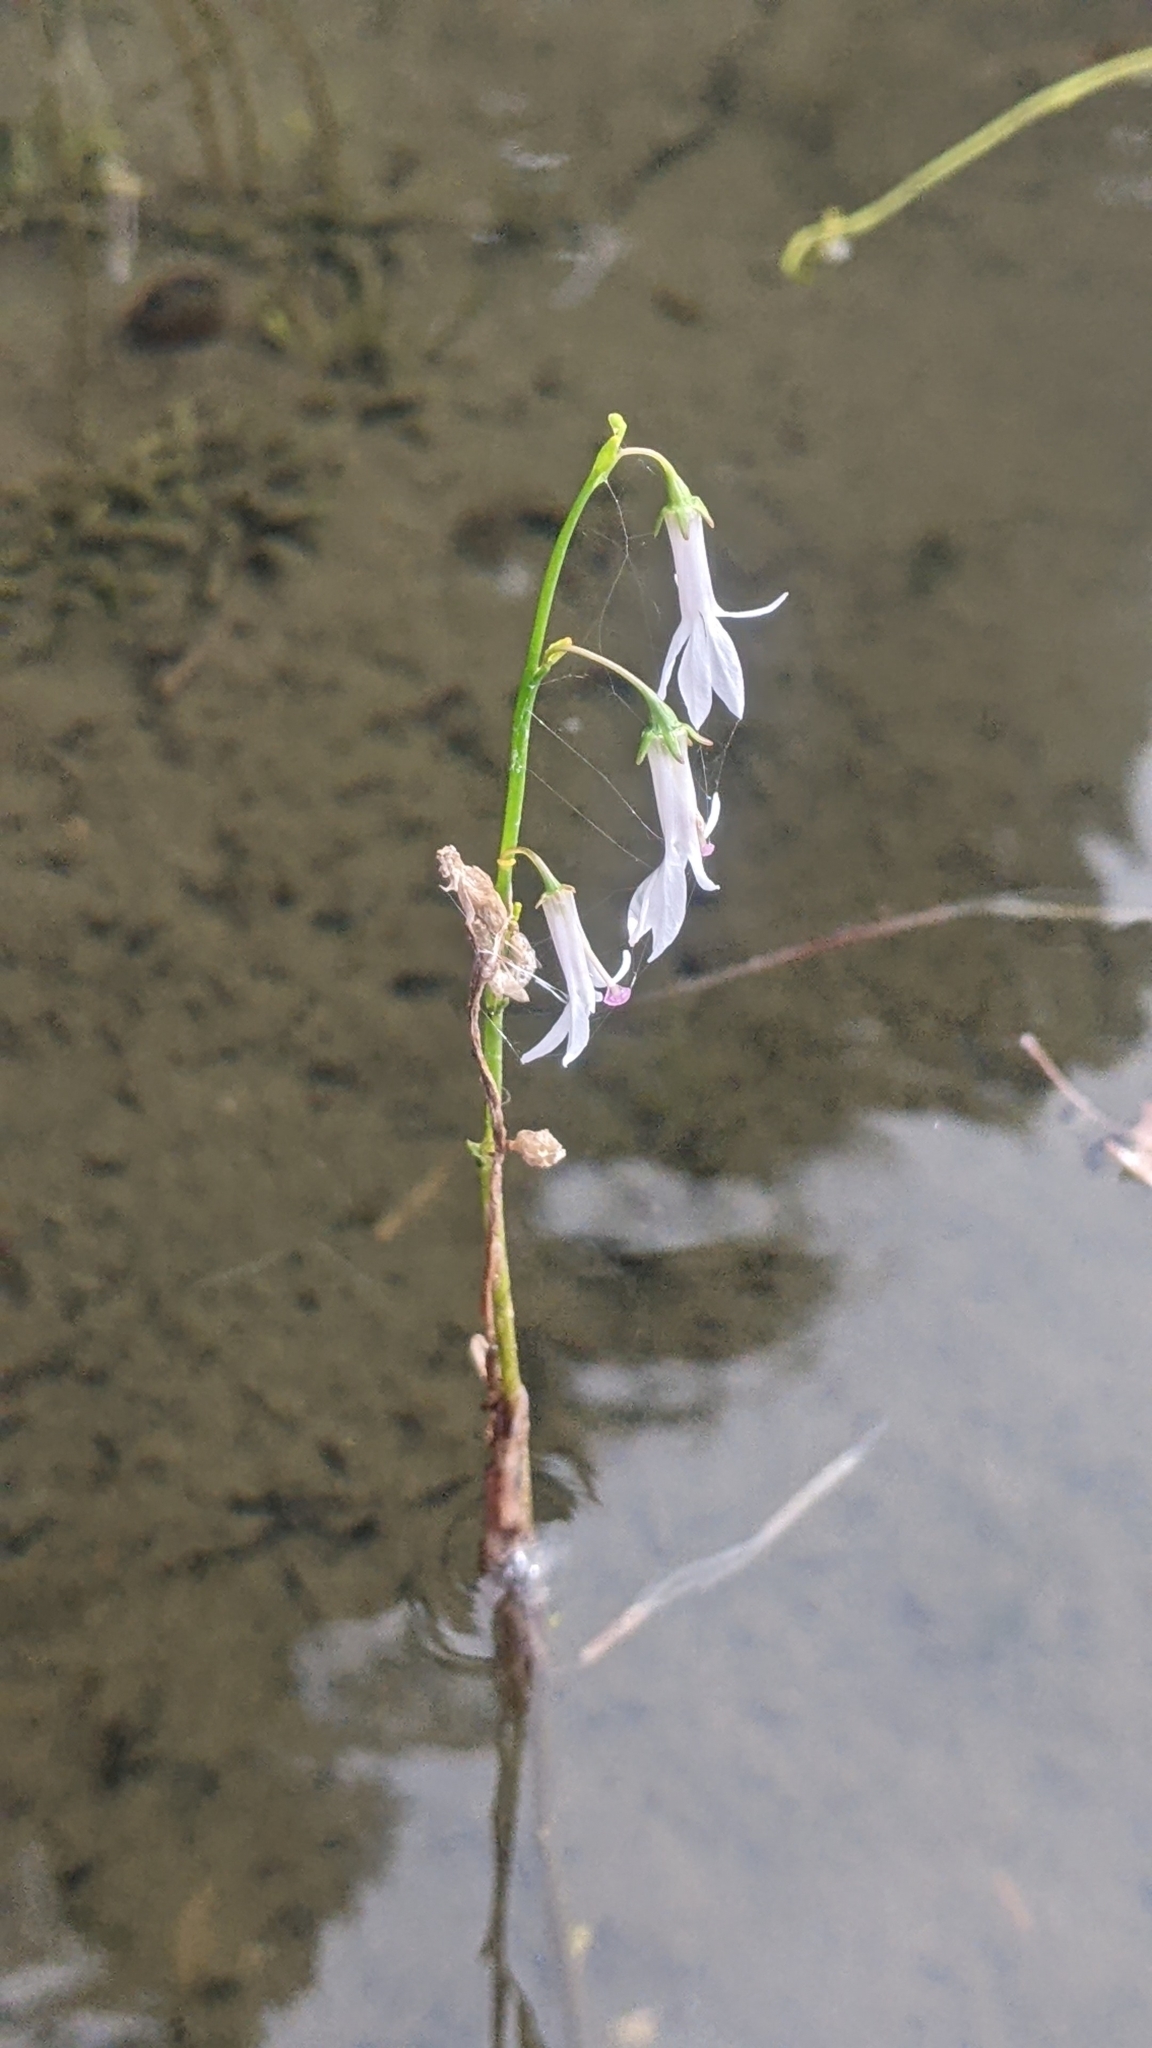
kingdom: Plantae
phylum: Tracheophyta
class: Magnoliopsida
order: Asterales
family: Campanulaceae
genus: Lobelia
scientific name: Lobelia dortmanna
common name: Water lobelia
